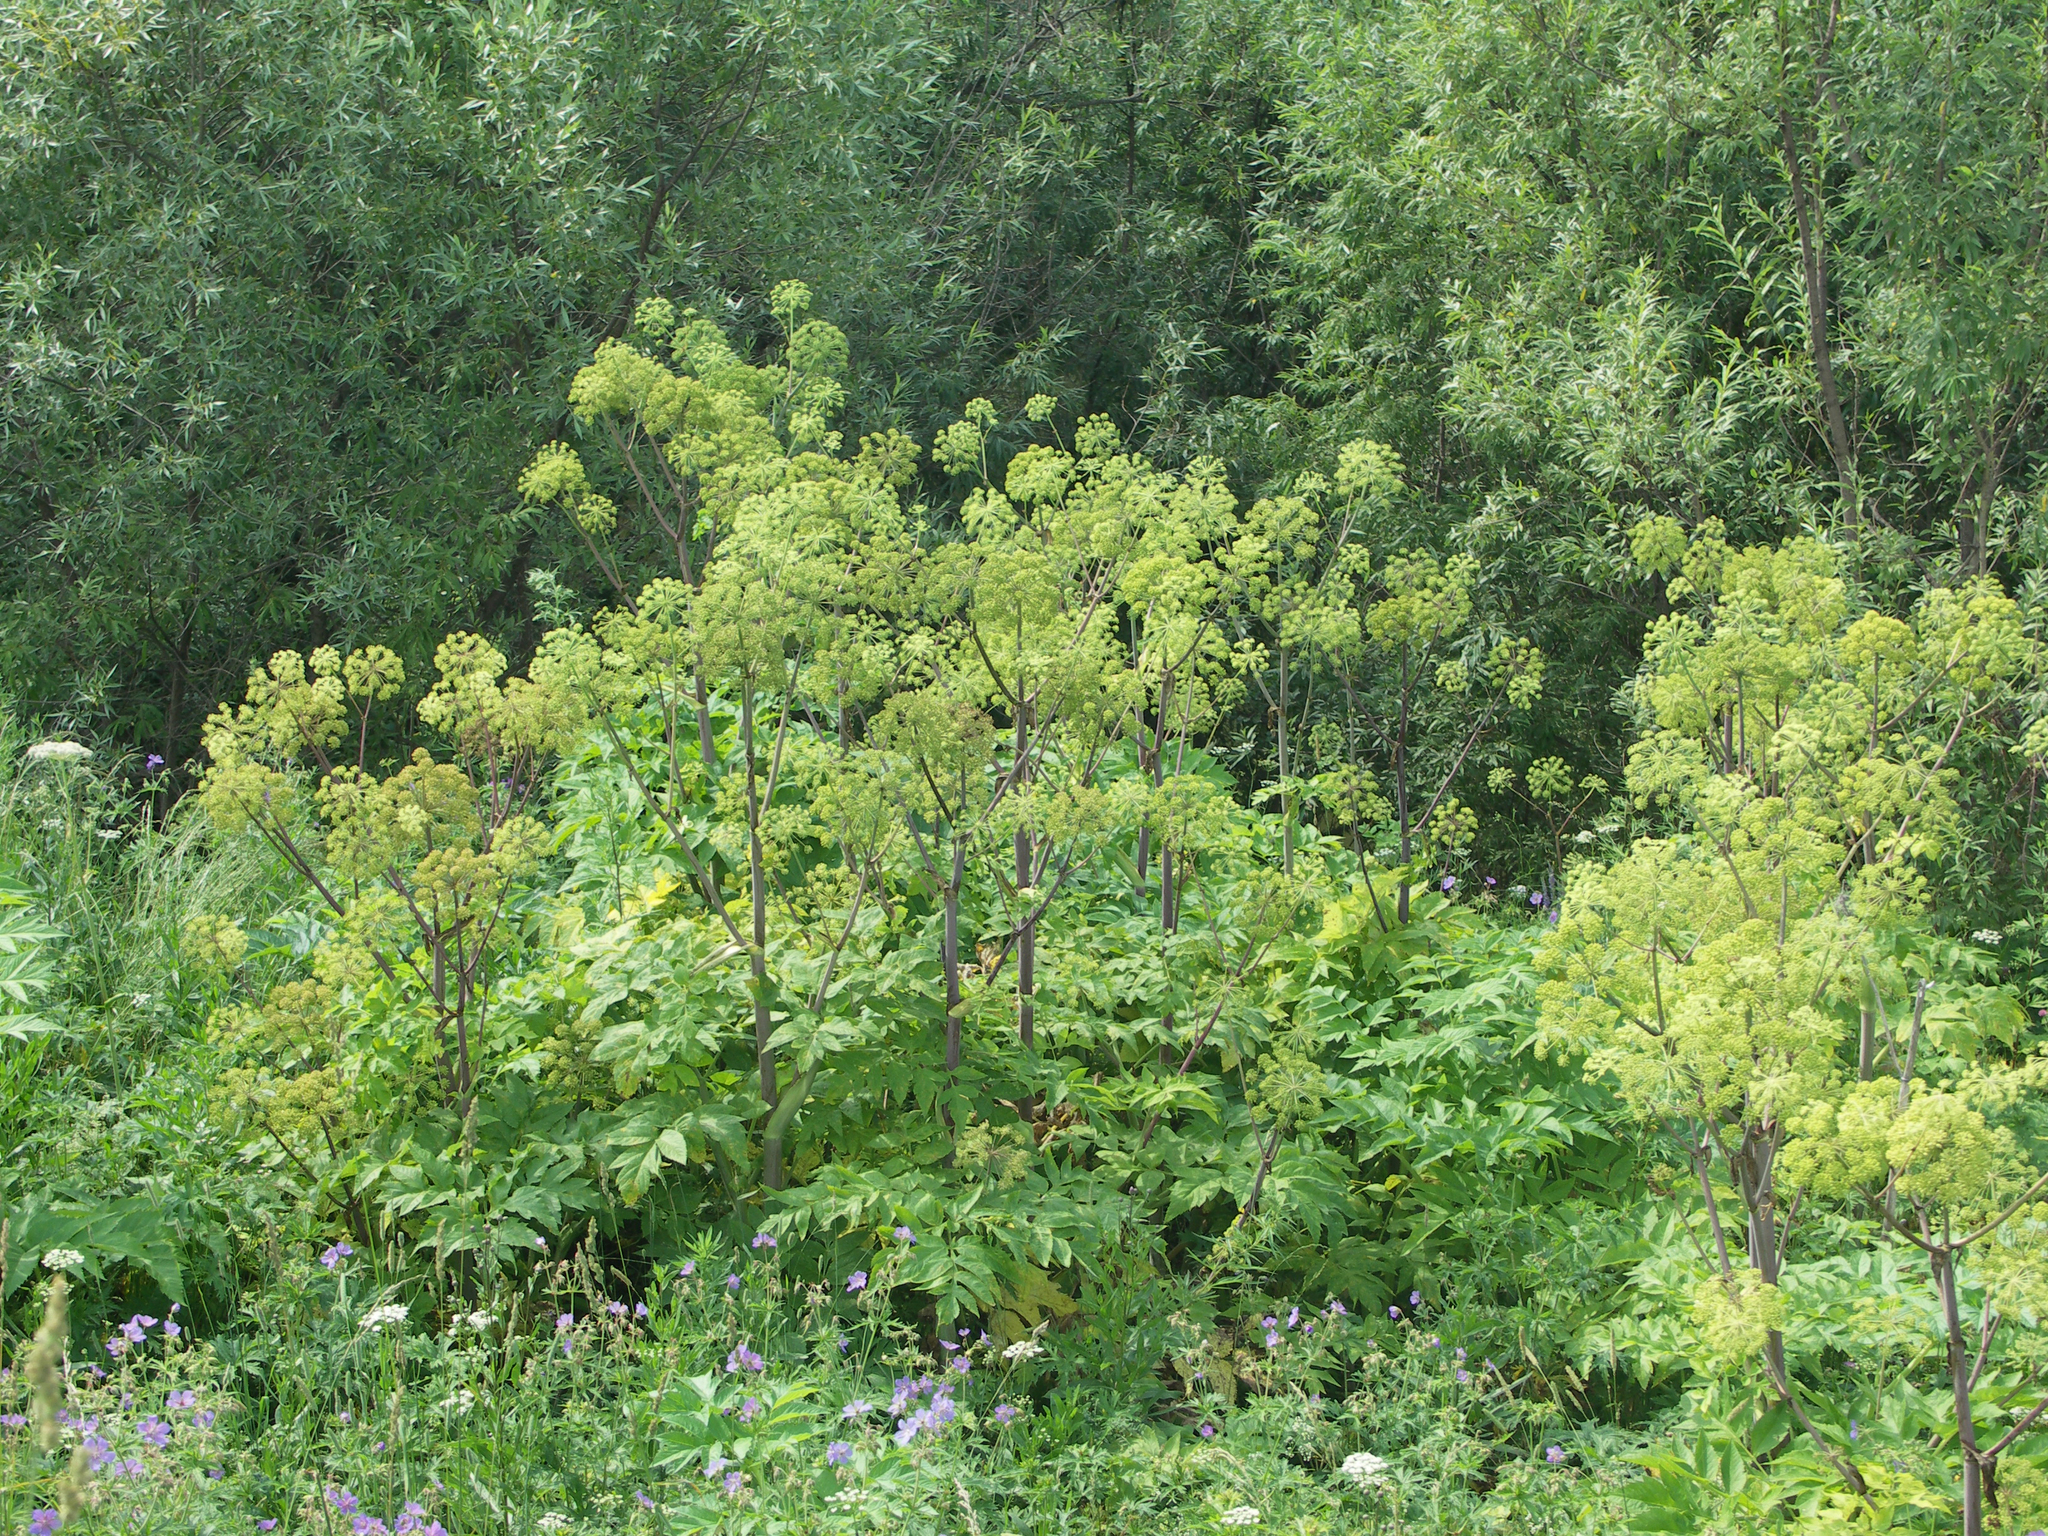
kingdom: Plantae
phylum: Tracheophyta
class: Magnoliopsida
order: Apiales
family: Apiaceae
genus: Angelica
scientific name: Angelica decurrens
